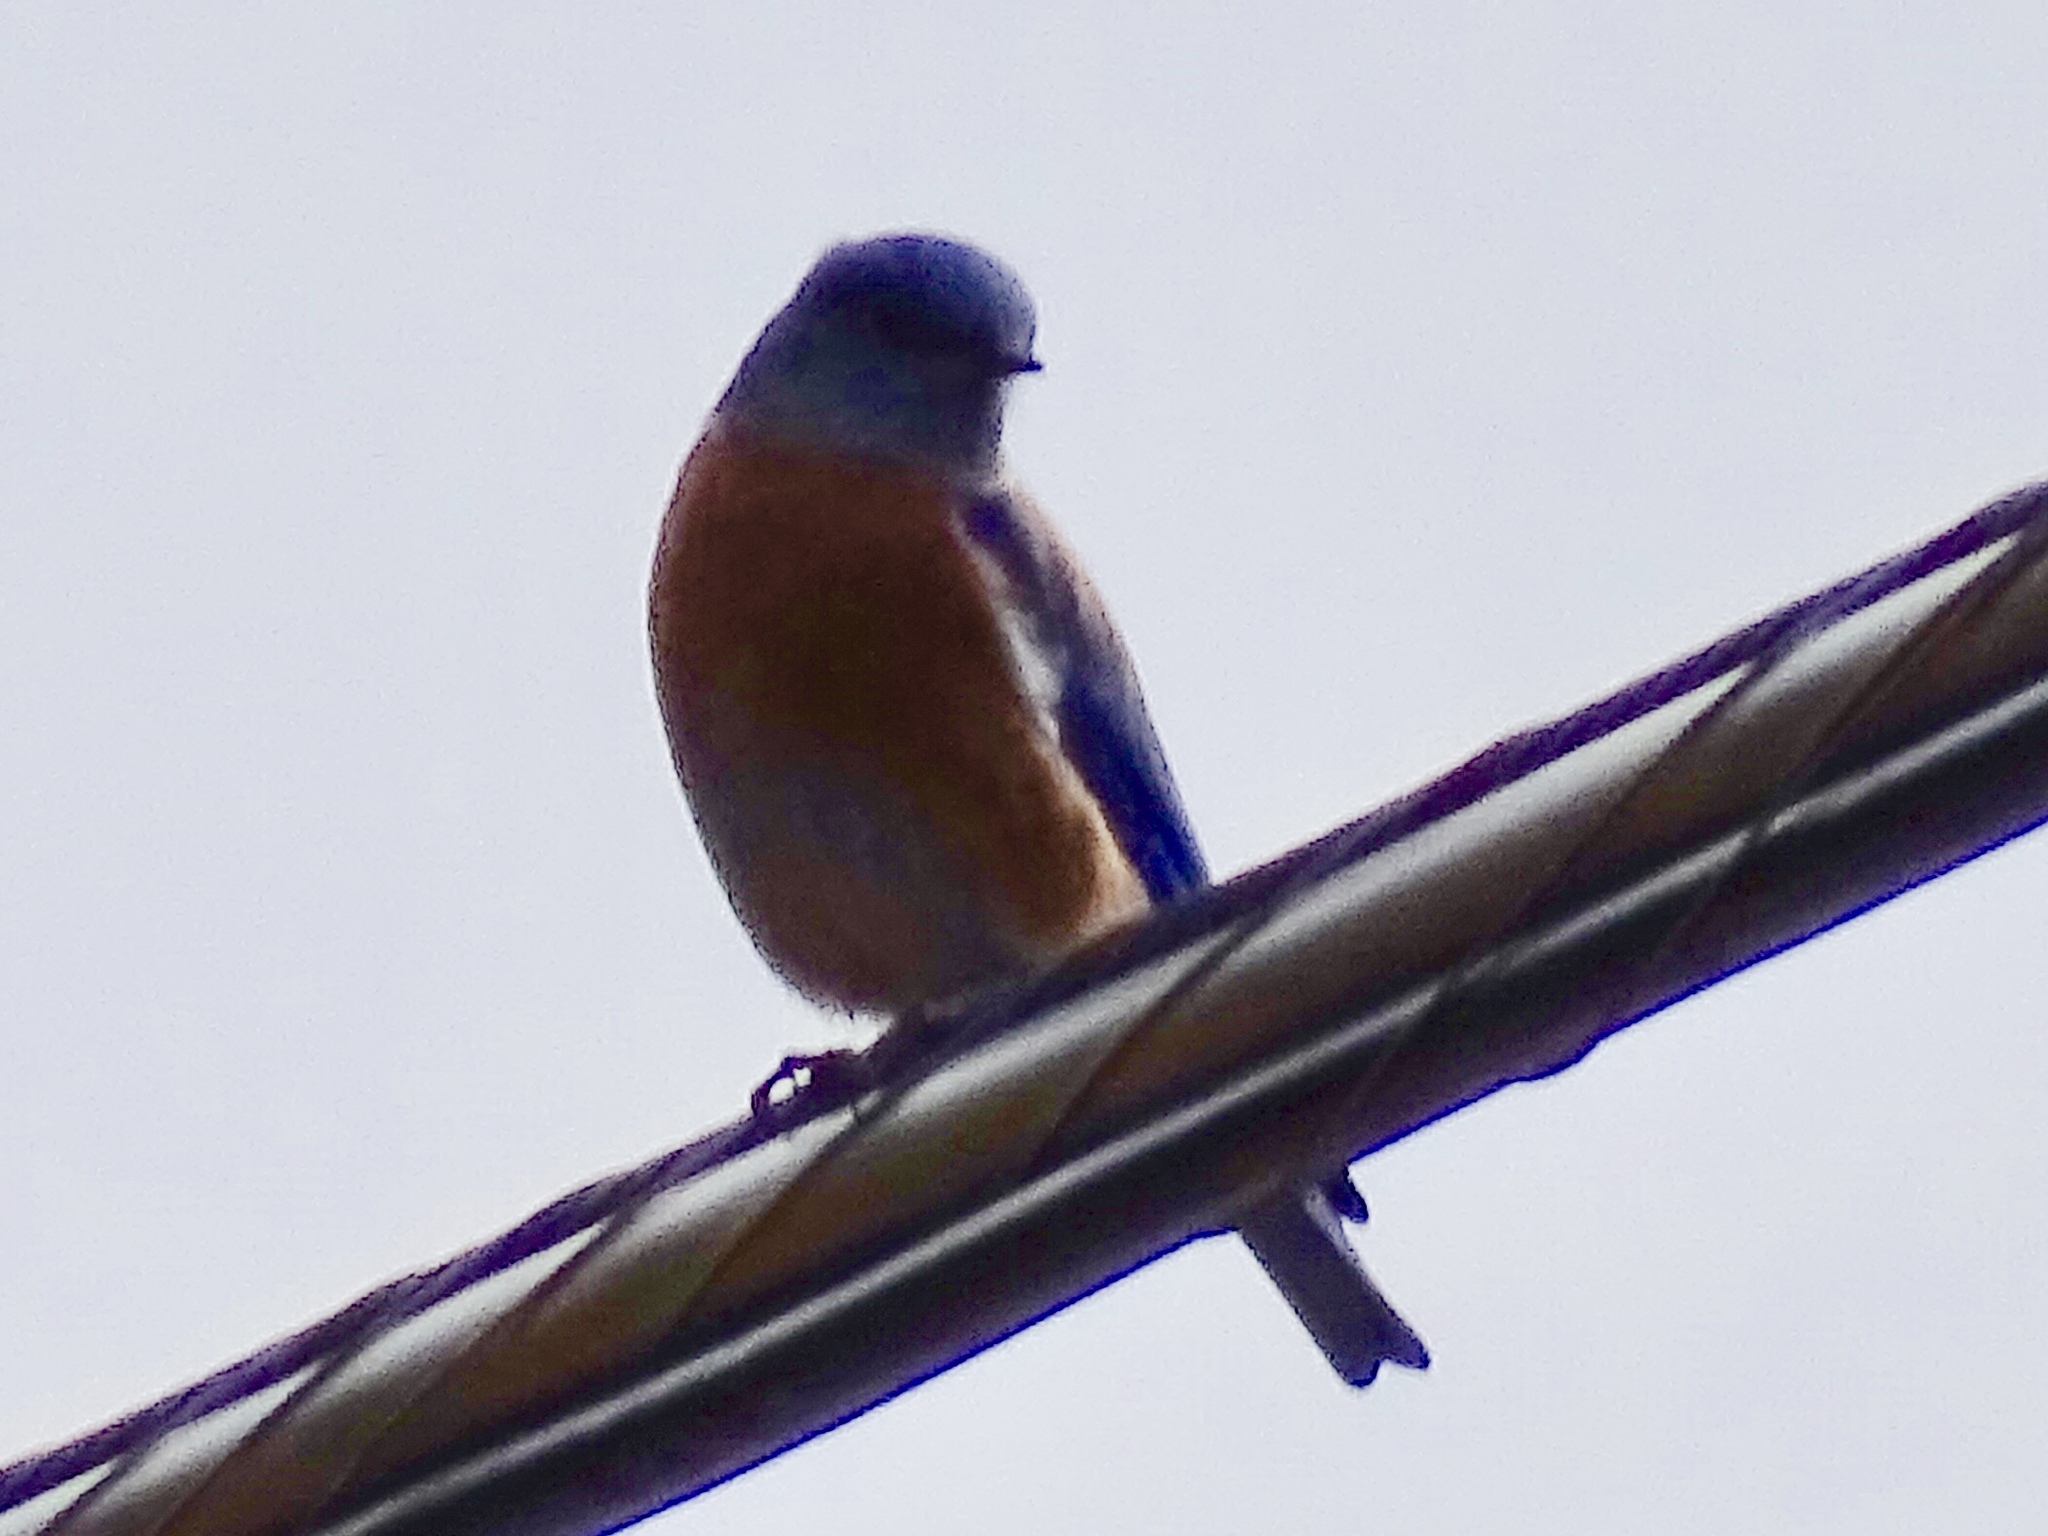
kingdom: Animalia
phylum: Chordata
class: Aves
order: Passeriformes
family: Turdidae
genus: Sialia
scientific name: Sialia mexicana
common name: Western bluebird
